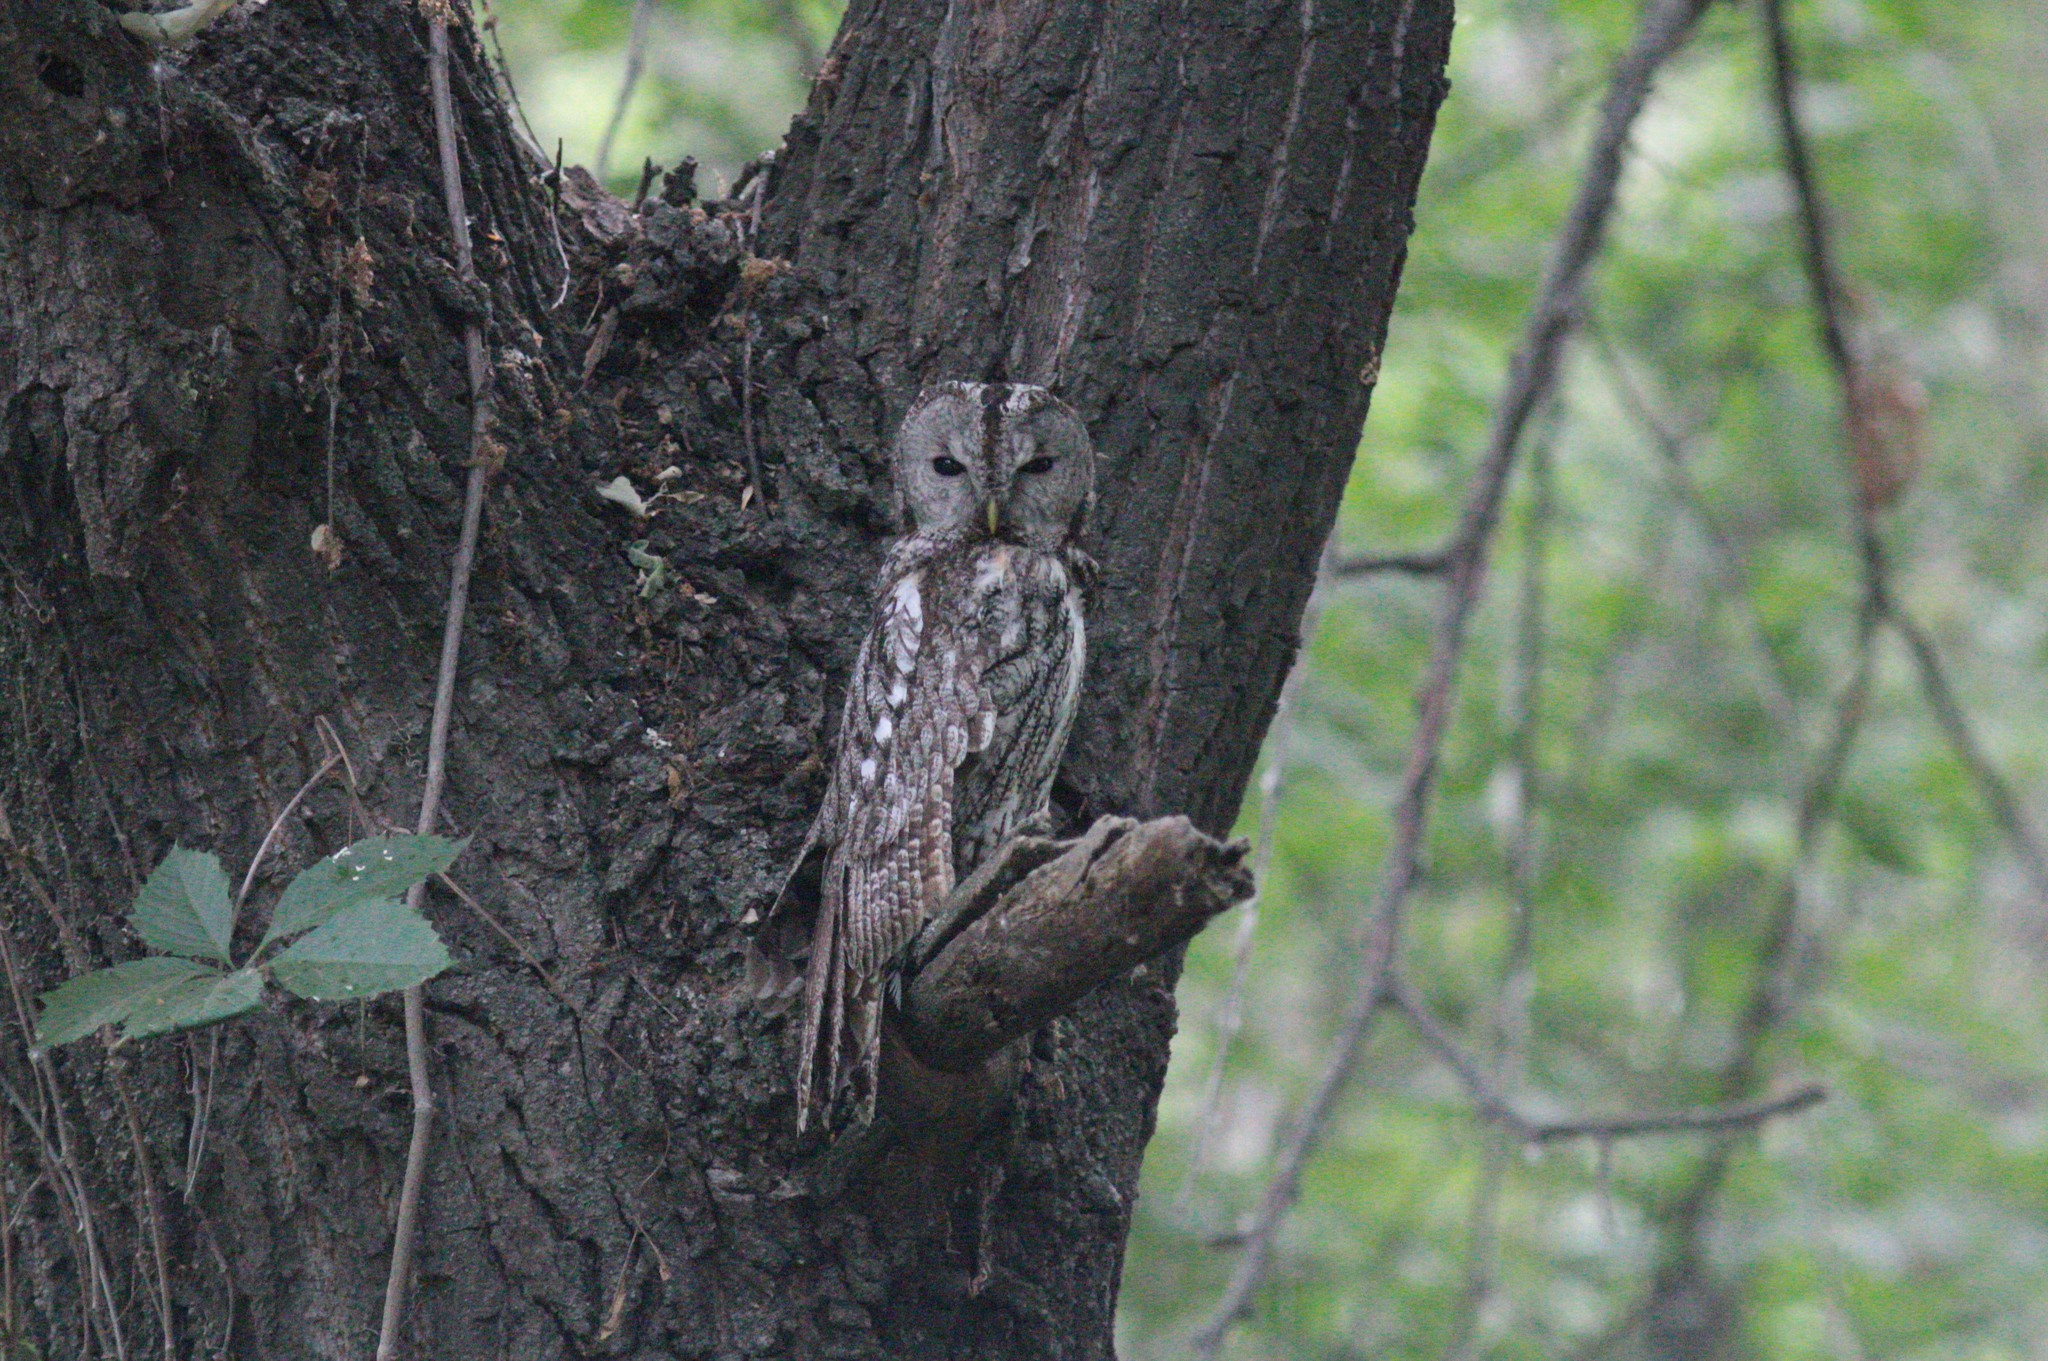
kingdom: Animalia
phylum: Chordata
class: Aves
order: Strigiformes
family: Strigidae
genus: Strix
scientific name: Strix aluco
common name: Tawny owl
